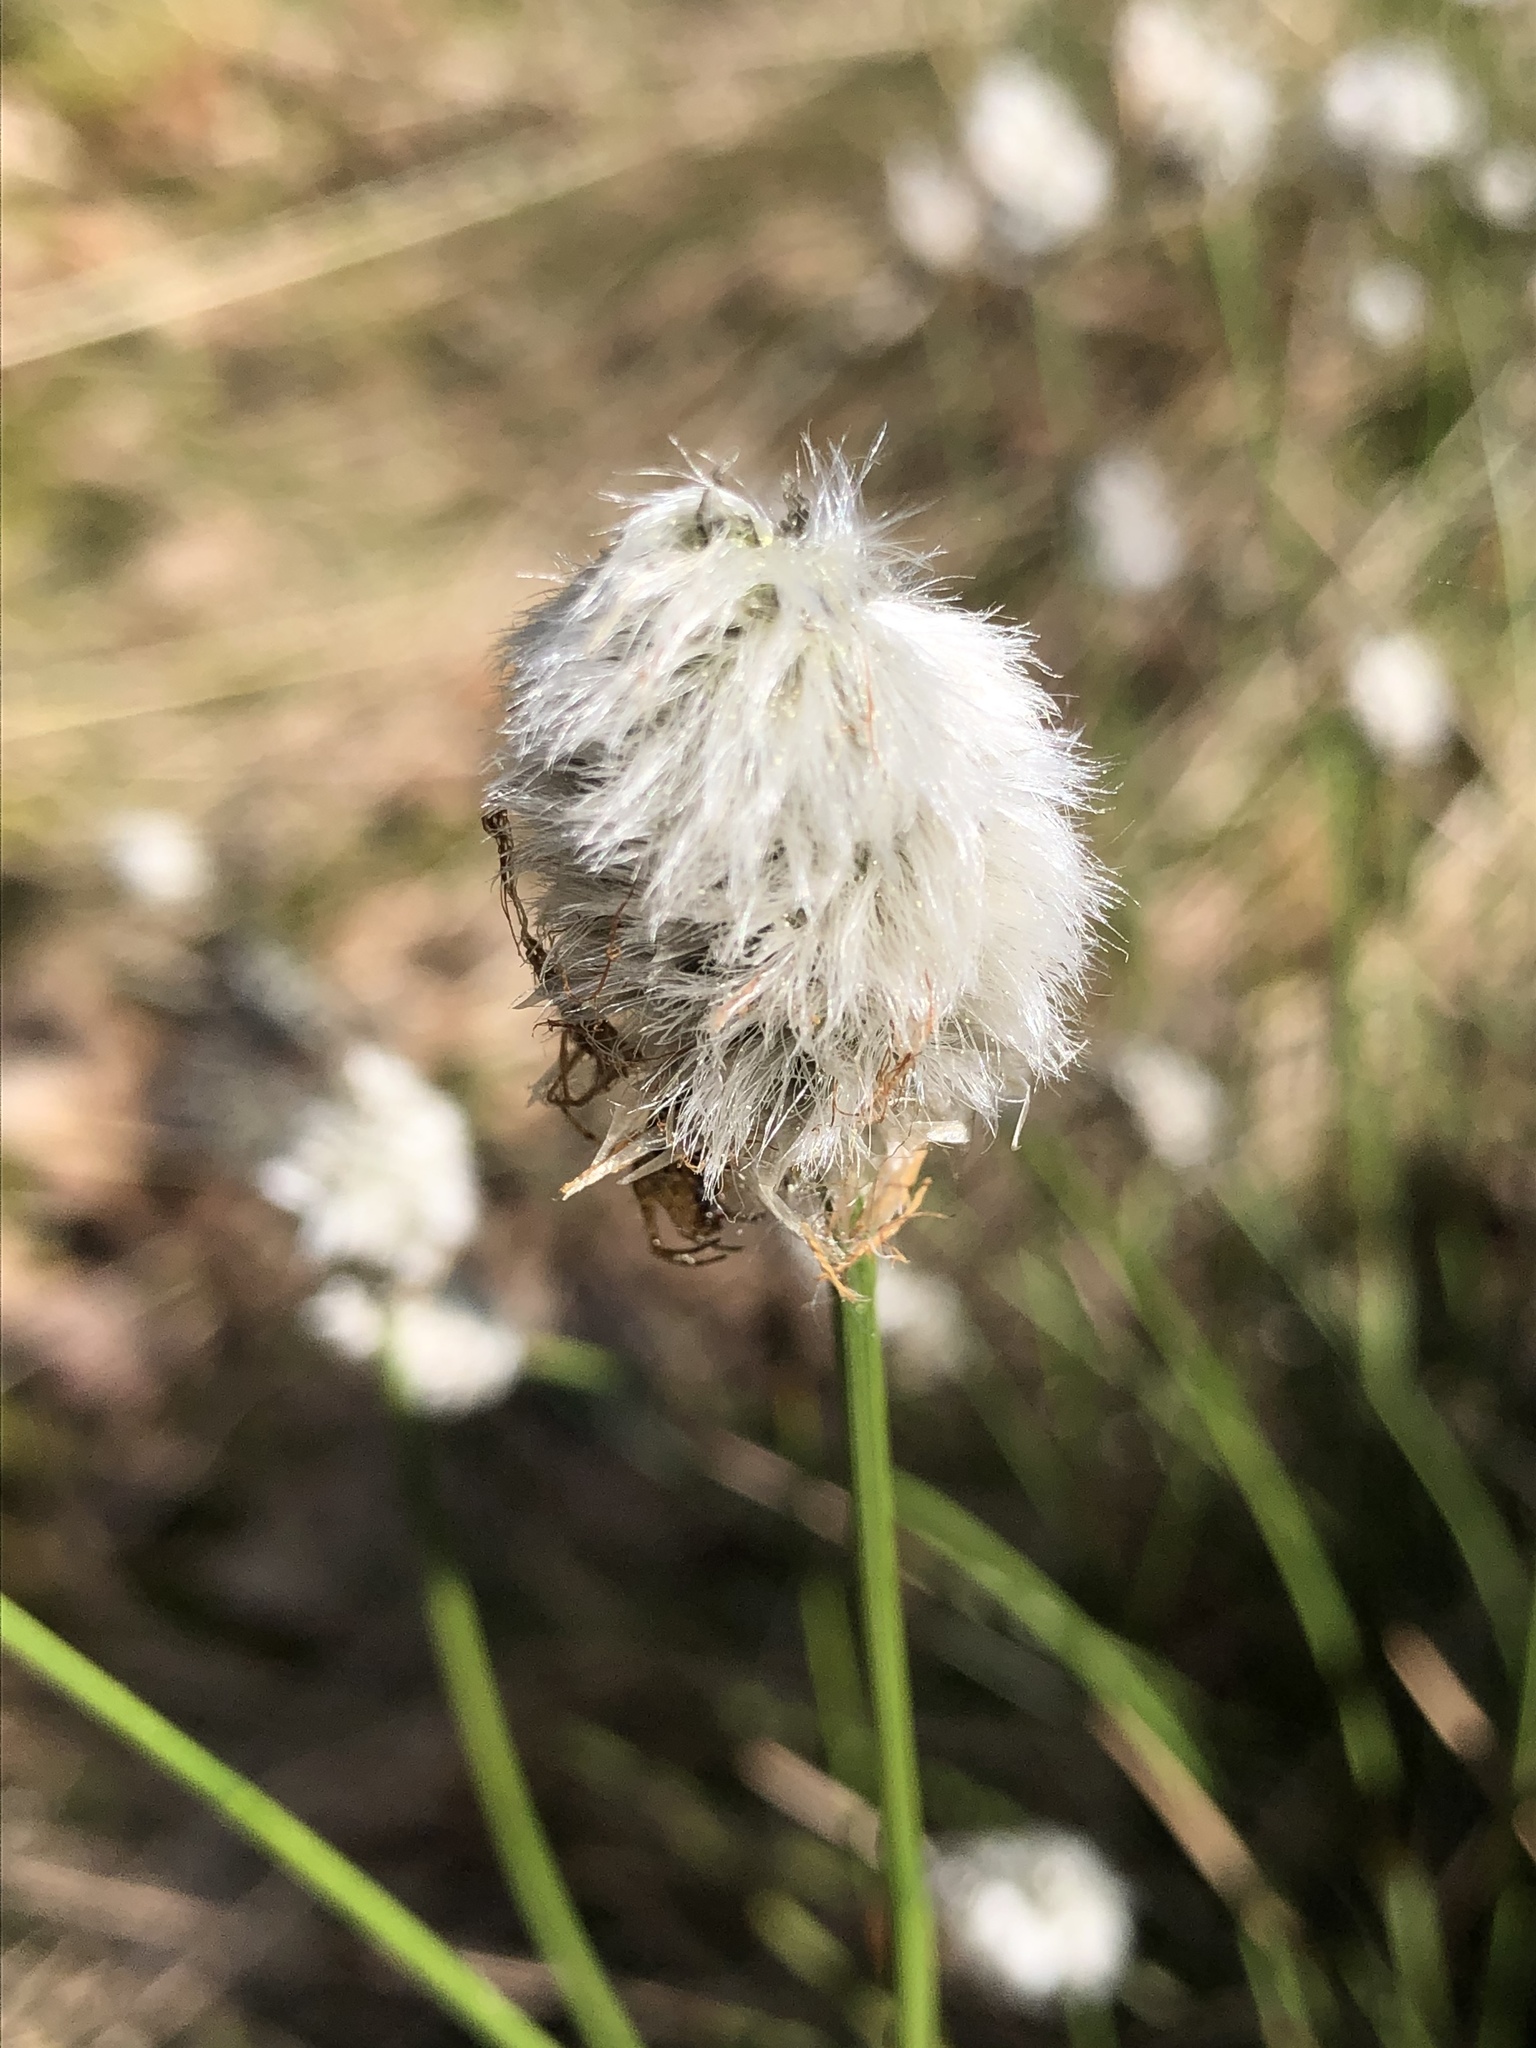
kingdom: Plantae
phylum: Tracheophyta
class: Liliopsida
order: Poales
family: Cyperaceae
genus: Eriophorum
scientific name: Eriophorum vaginatum
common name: Hare's-tail cottongrass
